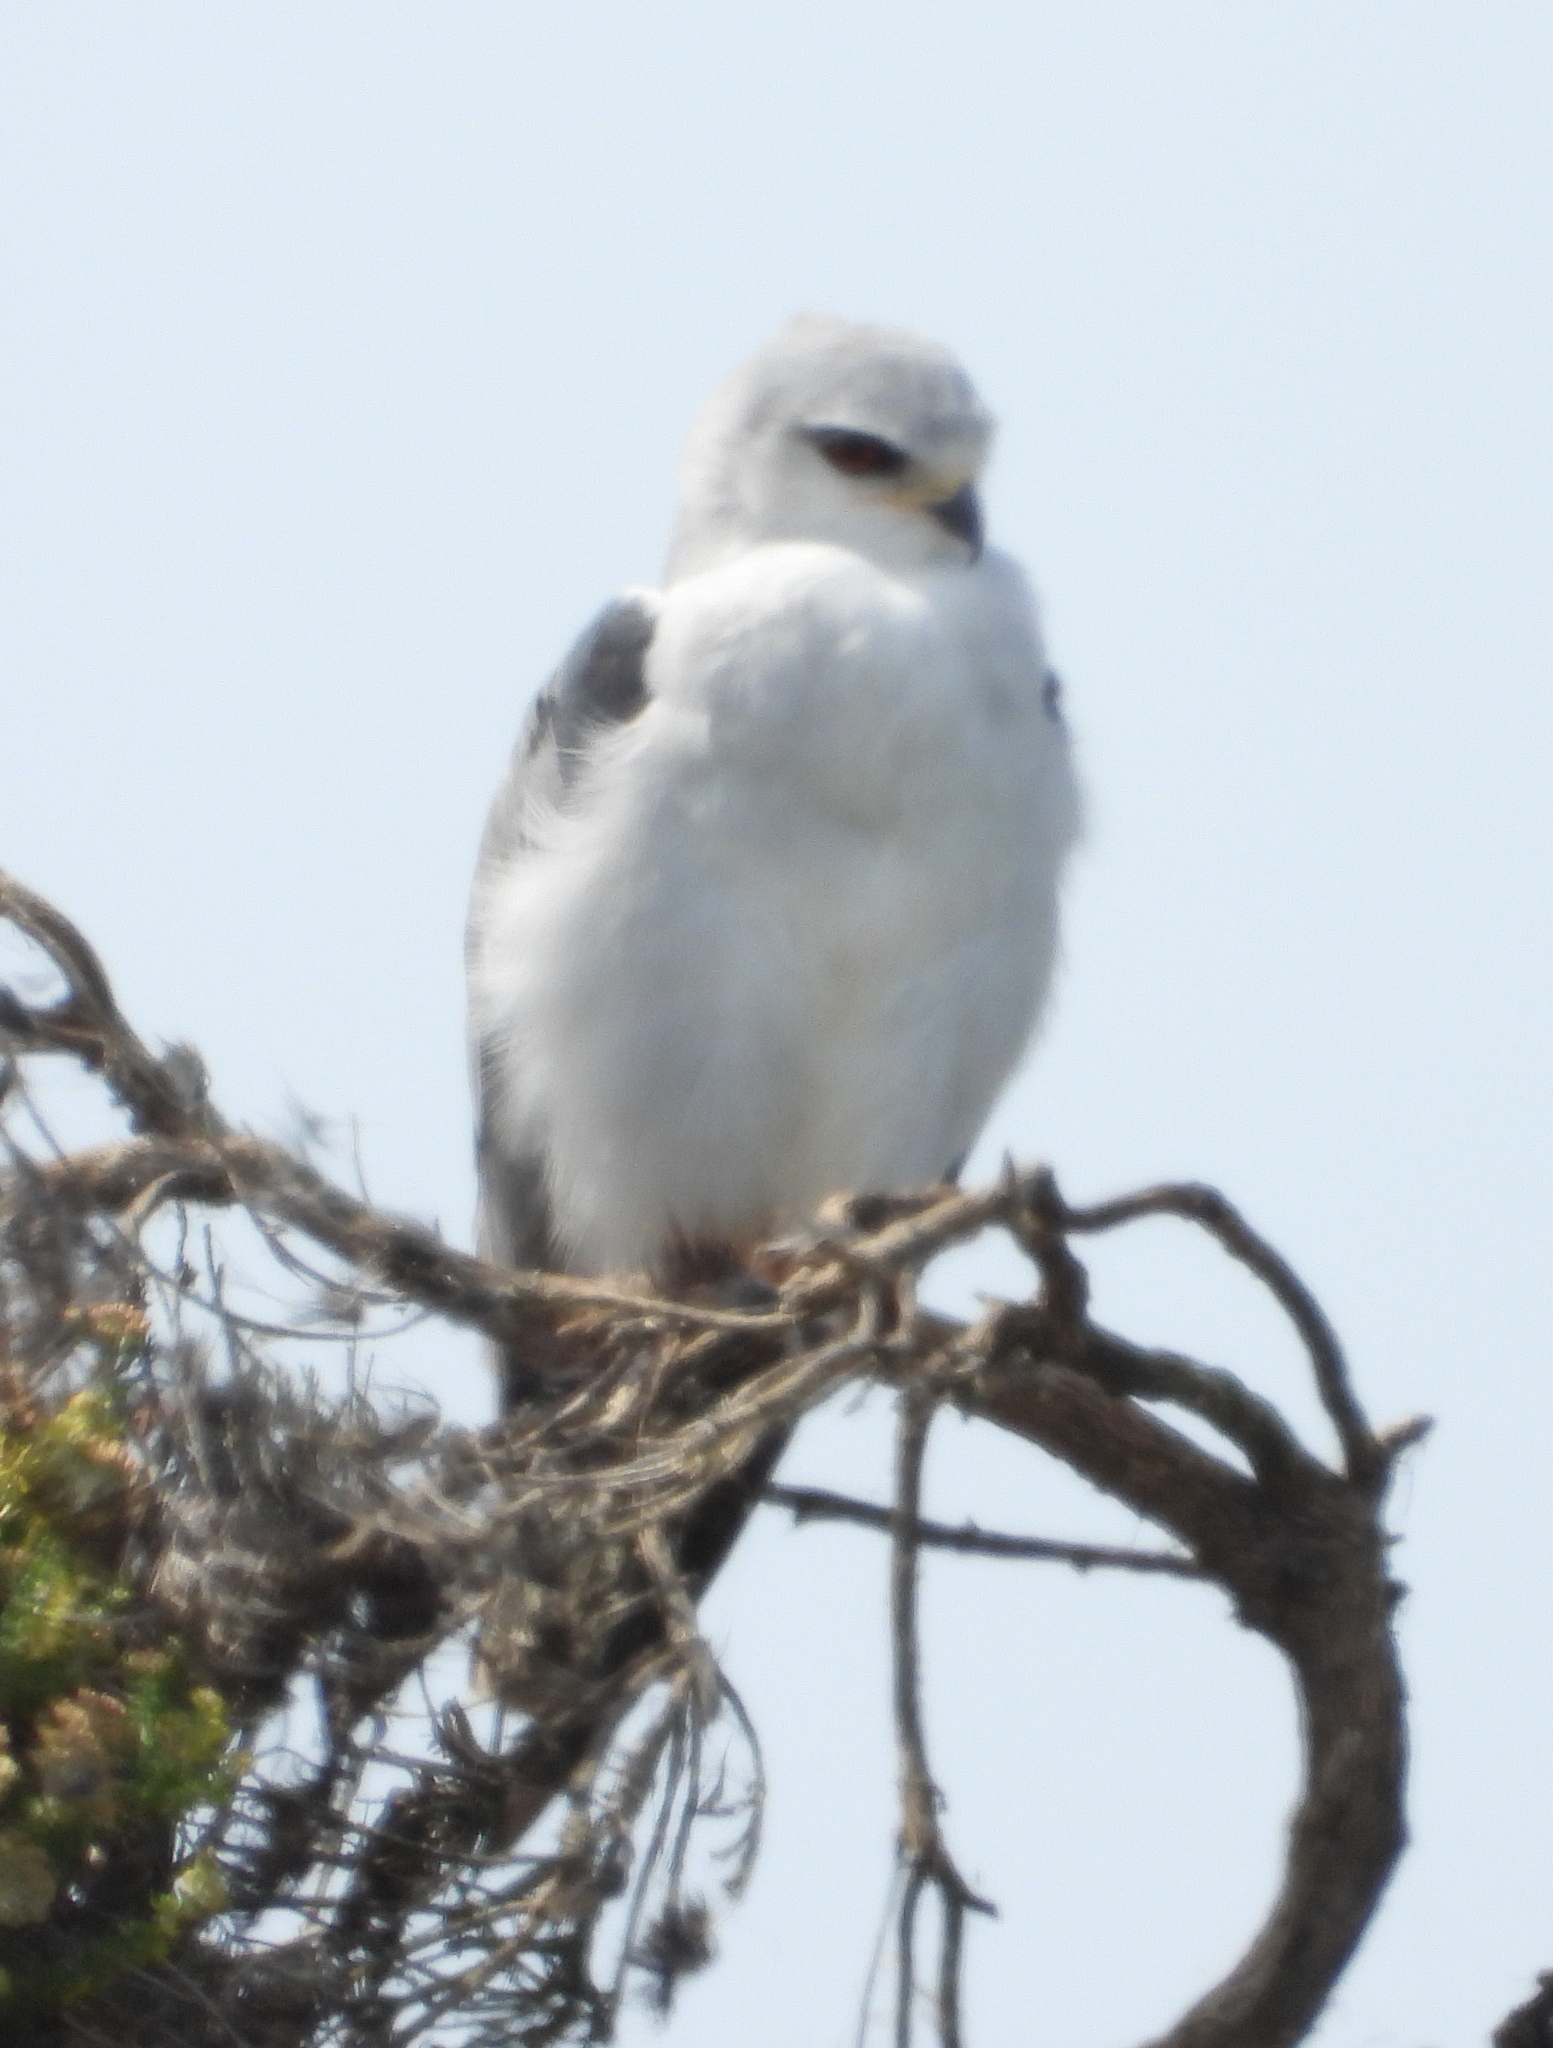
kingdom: Animalia
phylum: Chordata
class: Aves
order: Accipitriformes
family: Accipitridae
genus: Elanus
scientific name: Elanus caeruleus
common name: Black-winged kite
